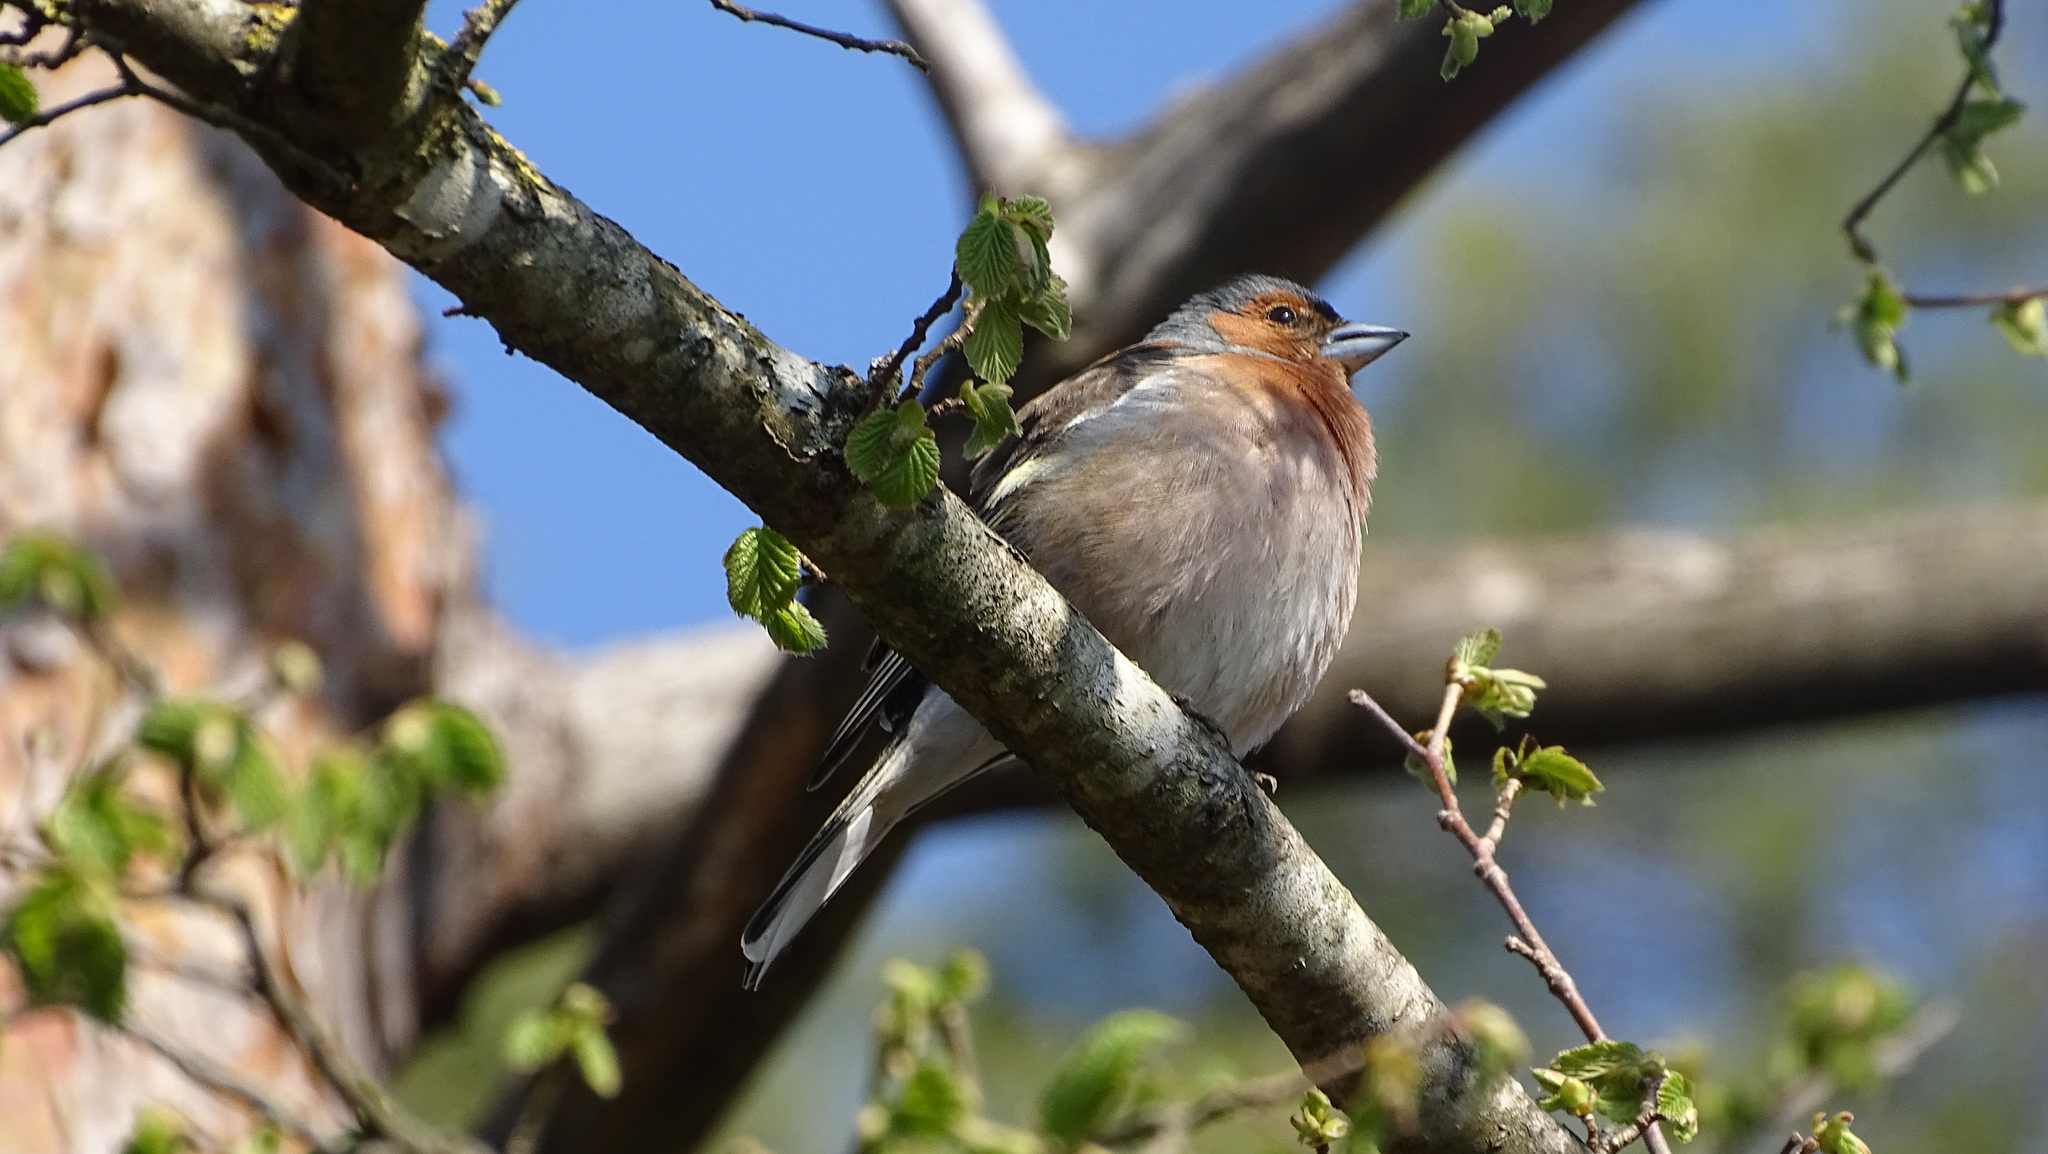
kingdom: Animalia
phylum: Chordata
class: Aves
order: Passeriformes
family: Passeridae
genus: Passer
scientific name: Passer domesticus
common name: House sparrow
